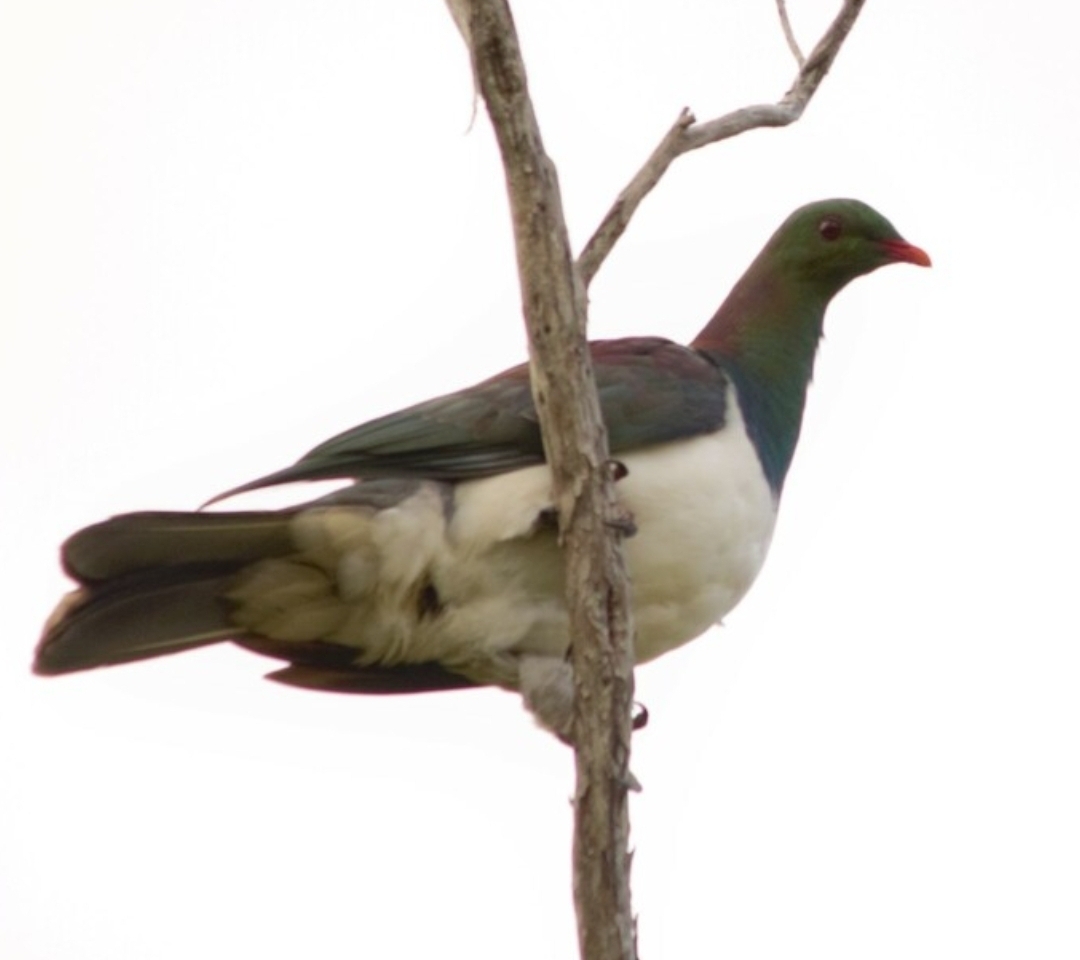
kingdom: Animalia
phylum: Chordata
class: Aves
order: Columbiformes
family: Columbidae
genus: Hemiphaga
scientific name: Hemiphaga novaeseelandiae
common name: New zealand pigeon
